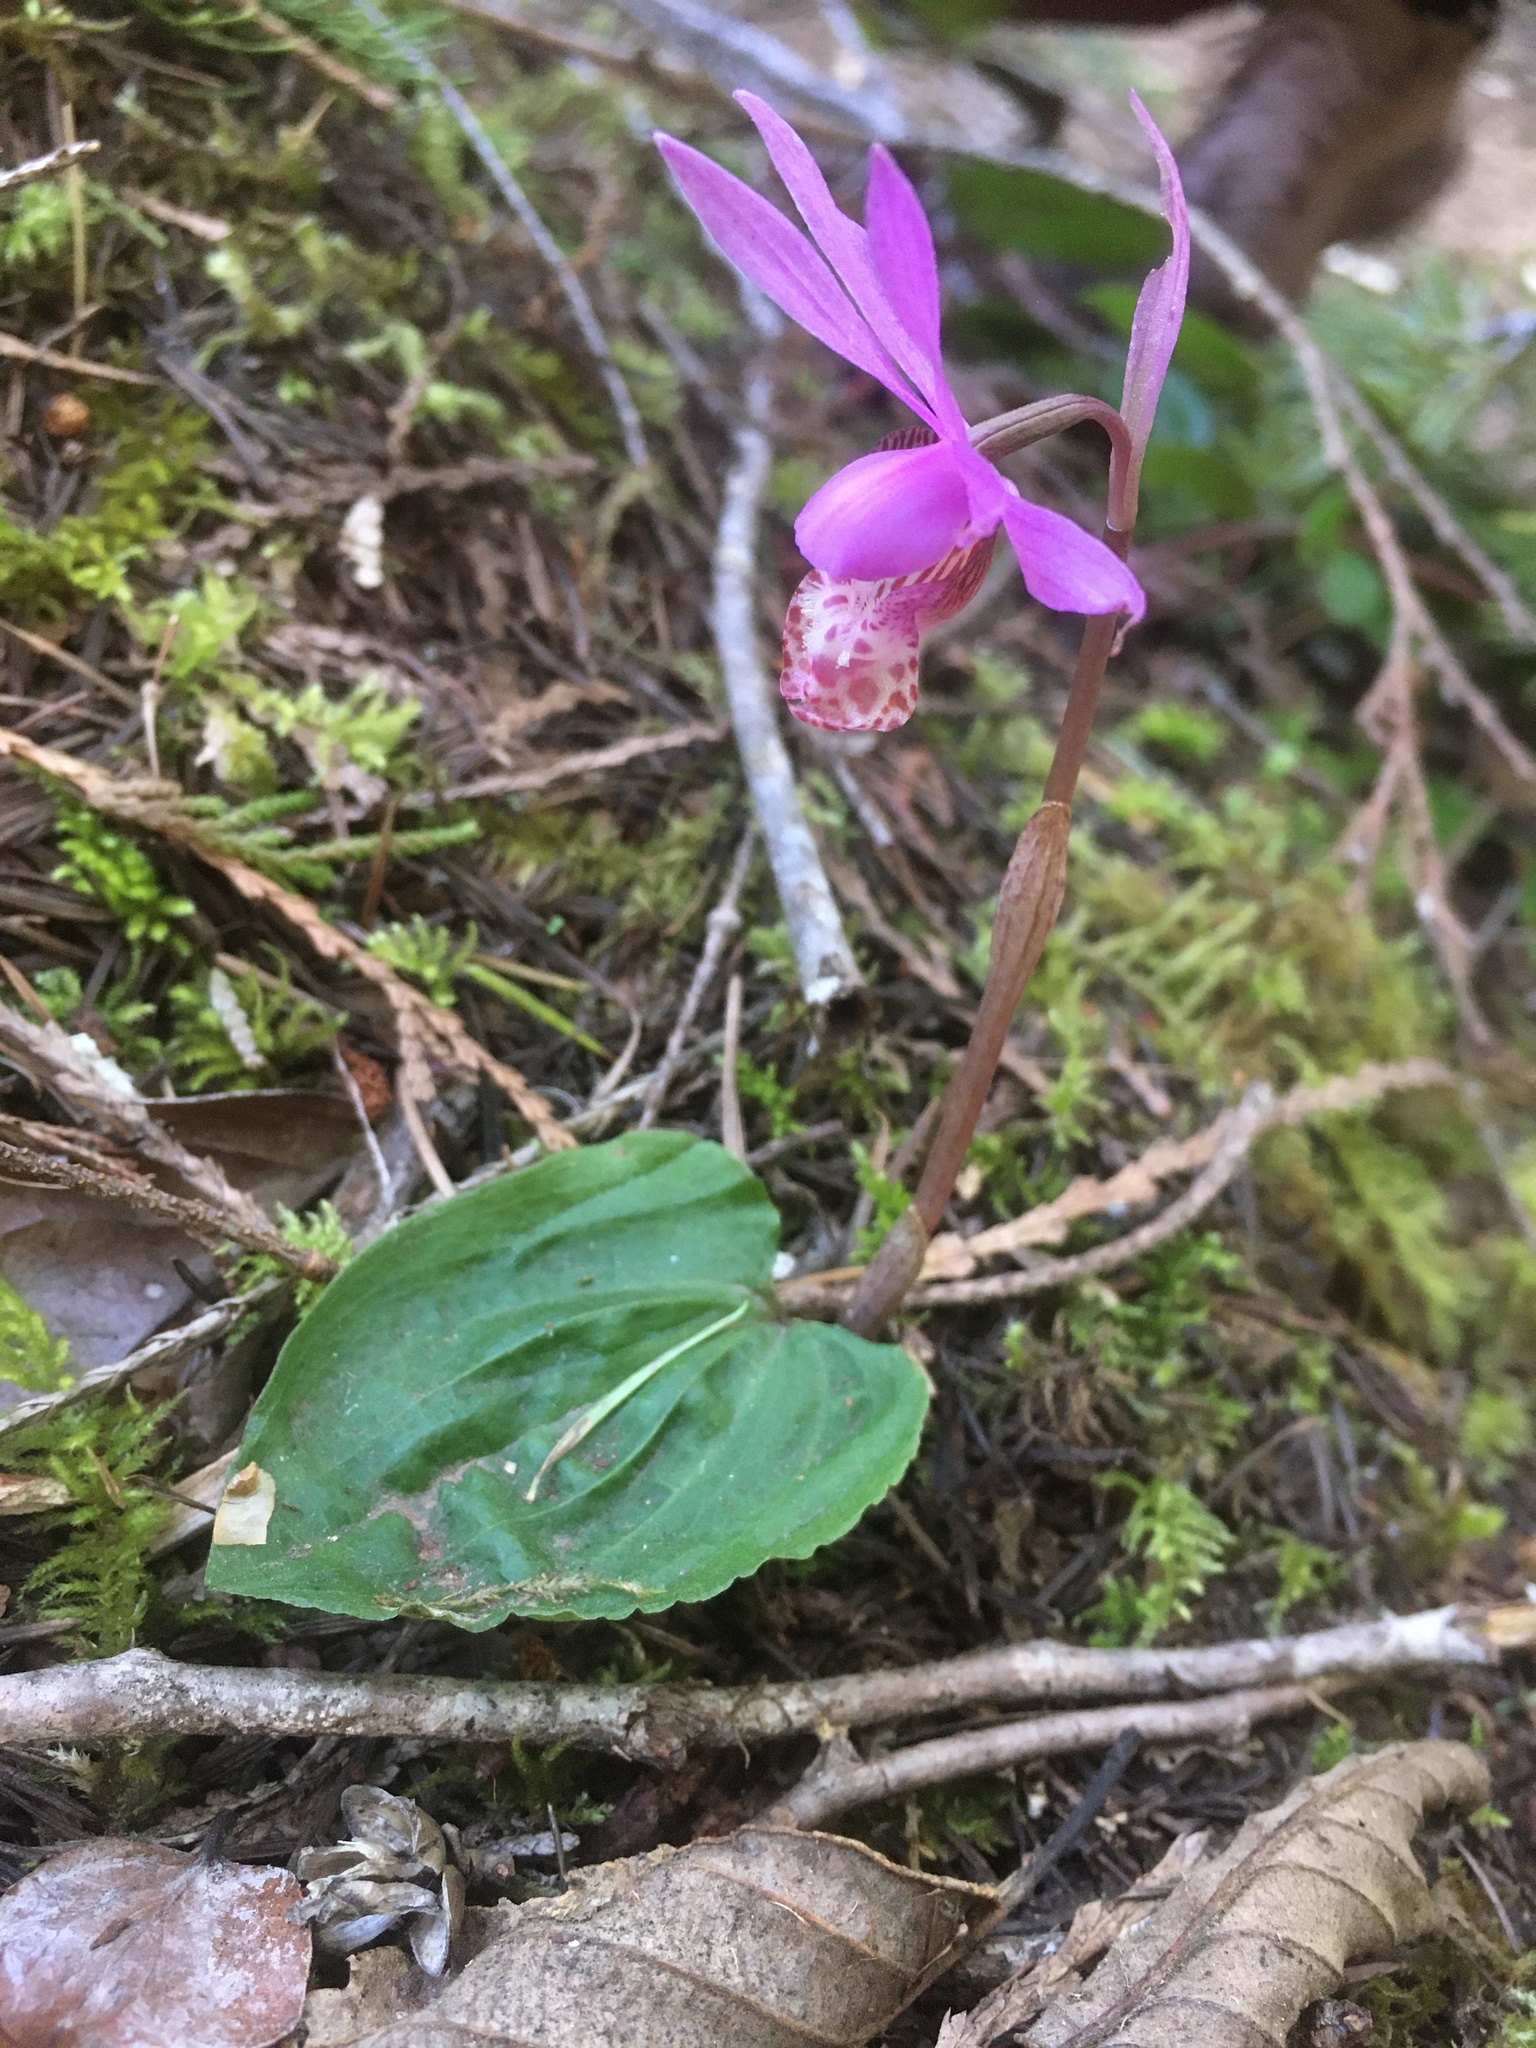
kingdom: Plantae
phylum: Tracheophyta
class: Liliopsida
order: Asparagales
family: Orchidaceae
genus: Calypso
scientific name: Calypso bulbosa
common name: Calypso
